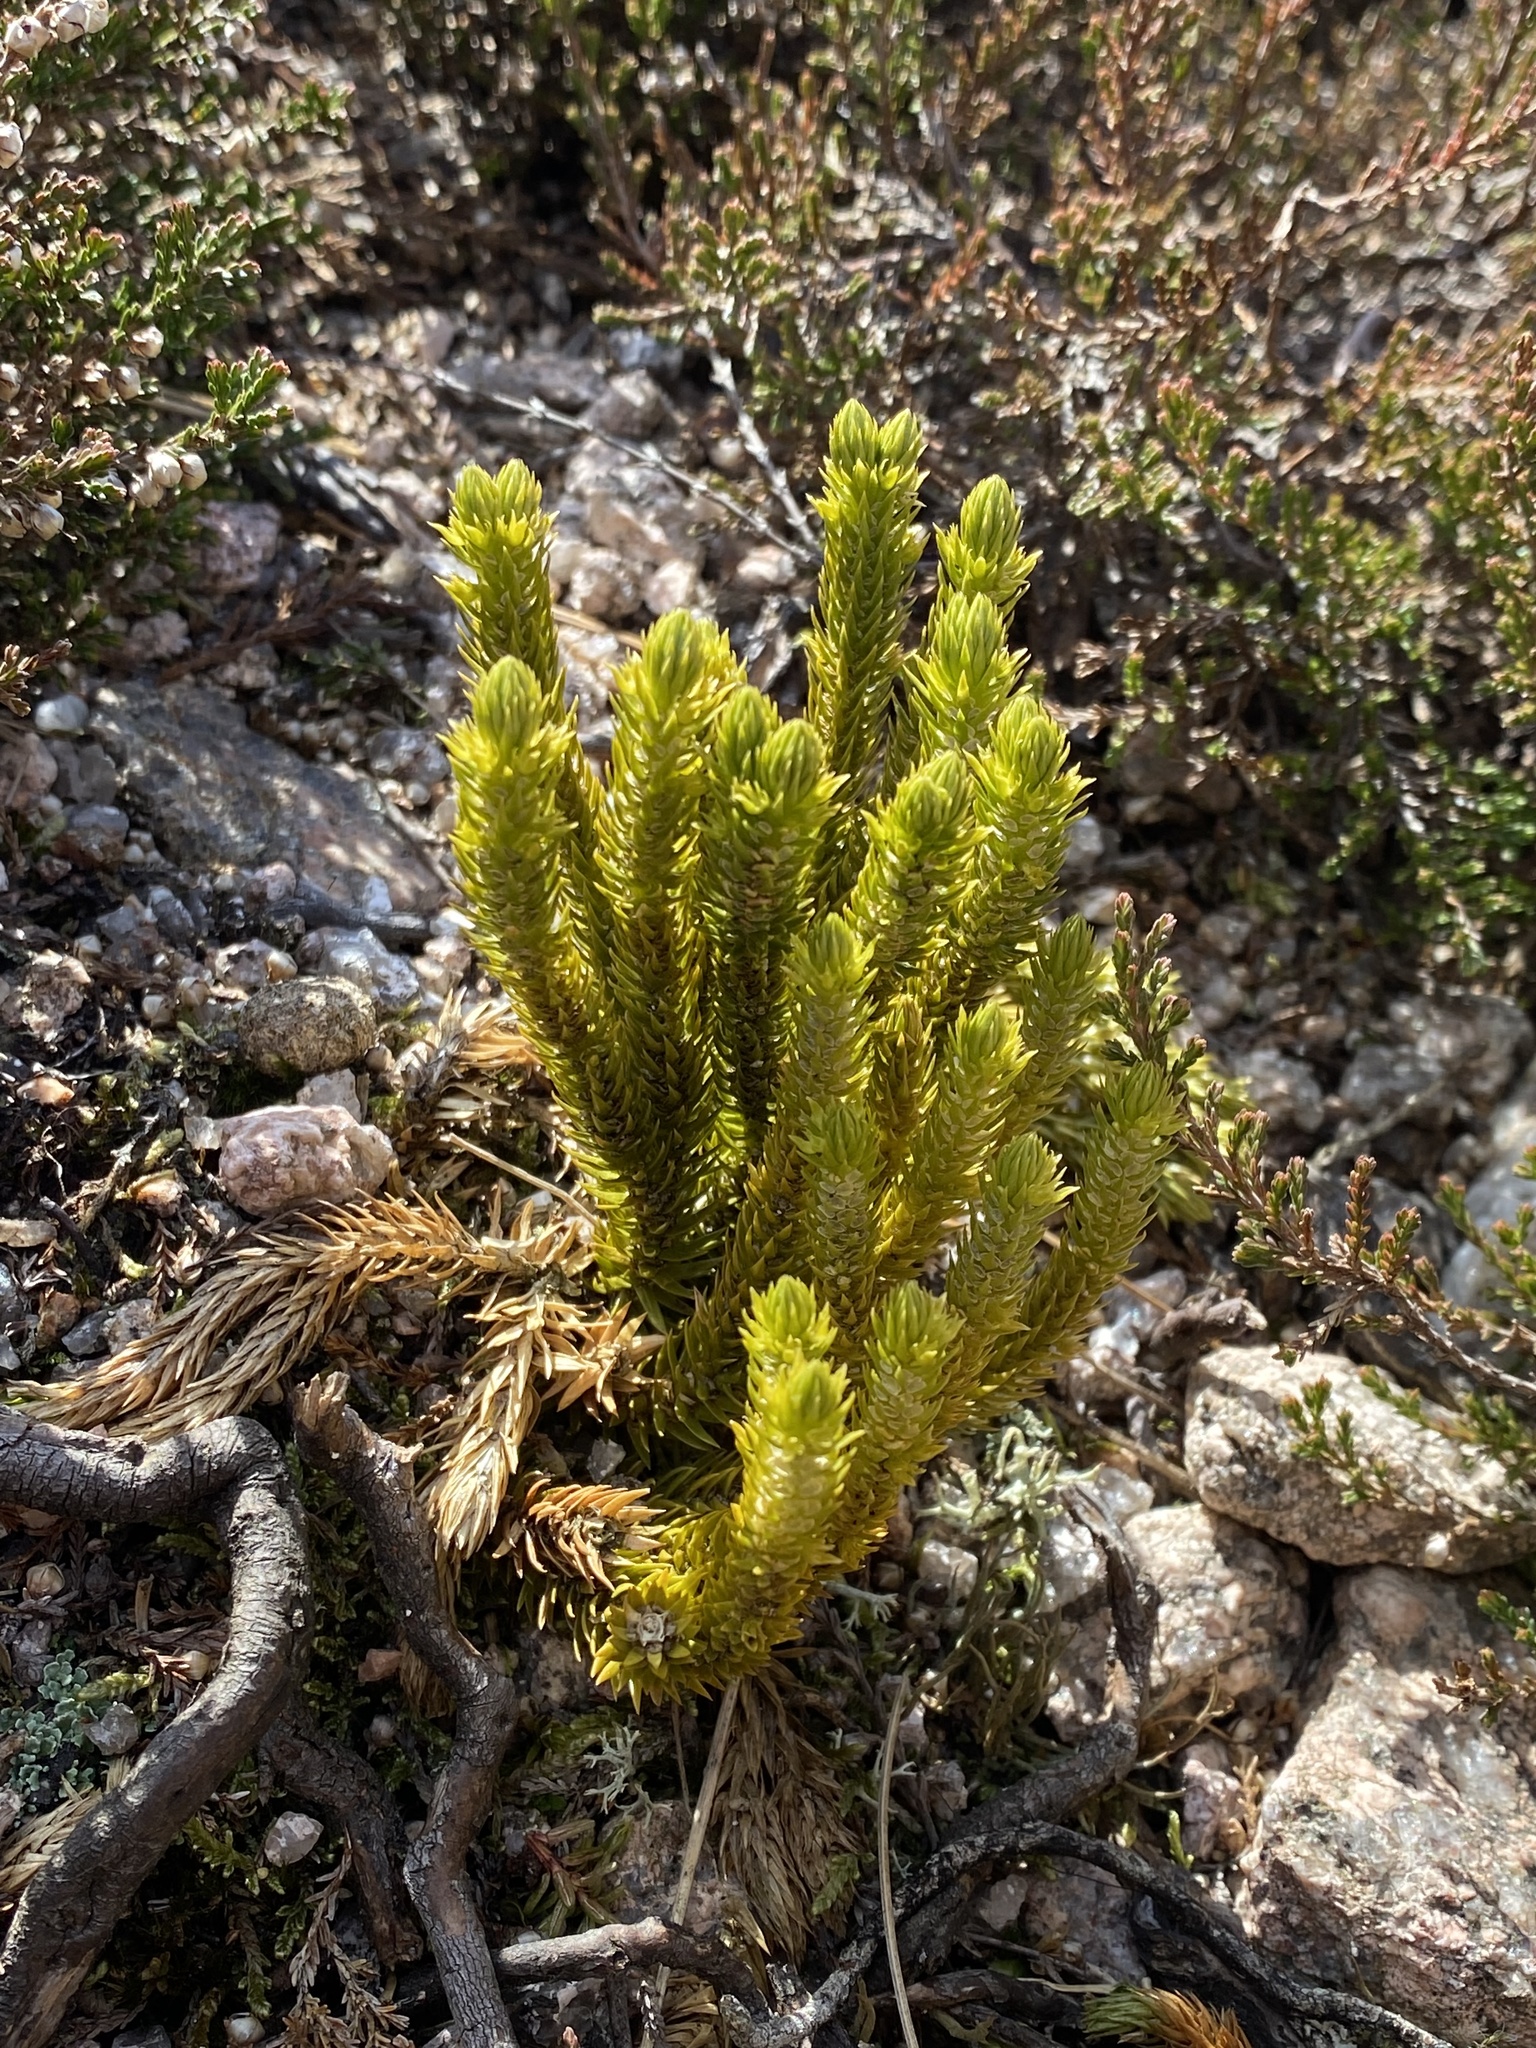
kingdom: Plantae
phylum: Tracheophyta
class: Lycopodiopsida
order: Lycopodiales
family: Lycopodiaceae
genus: Huperzia
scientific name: Huperzia selago
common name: Northern firmoss
